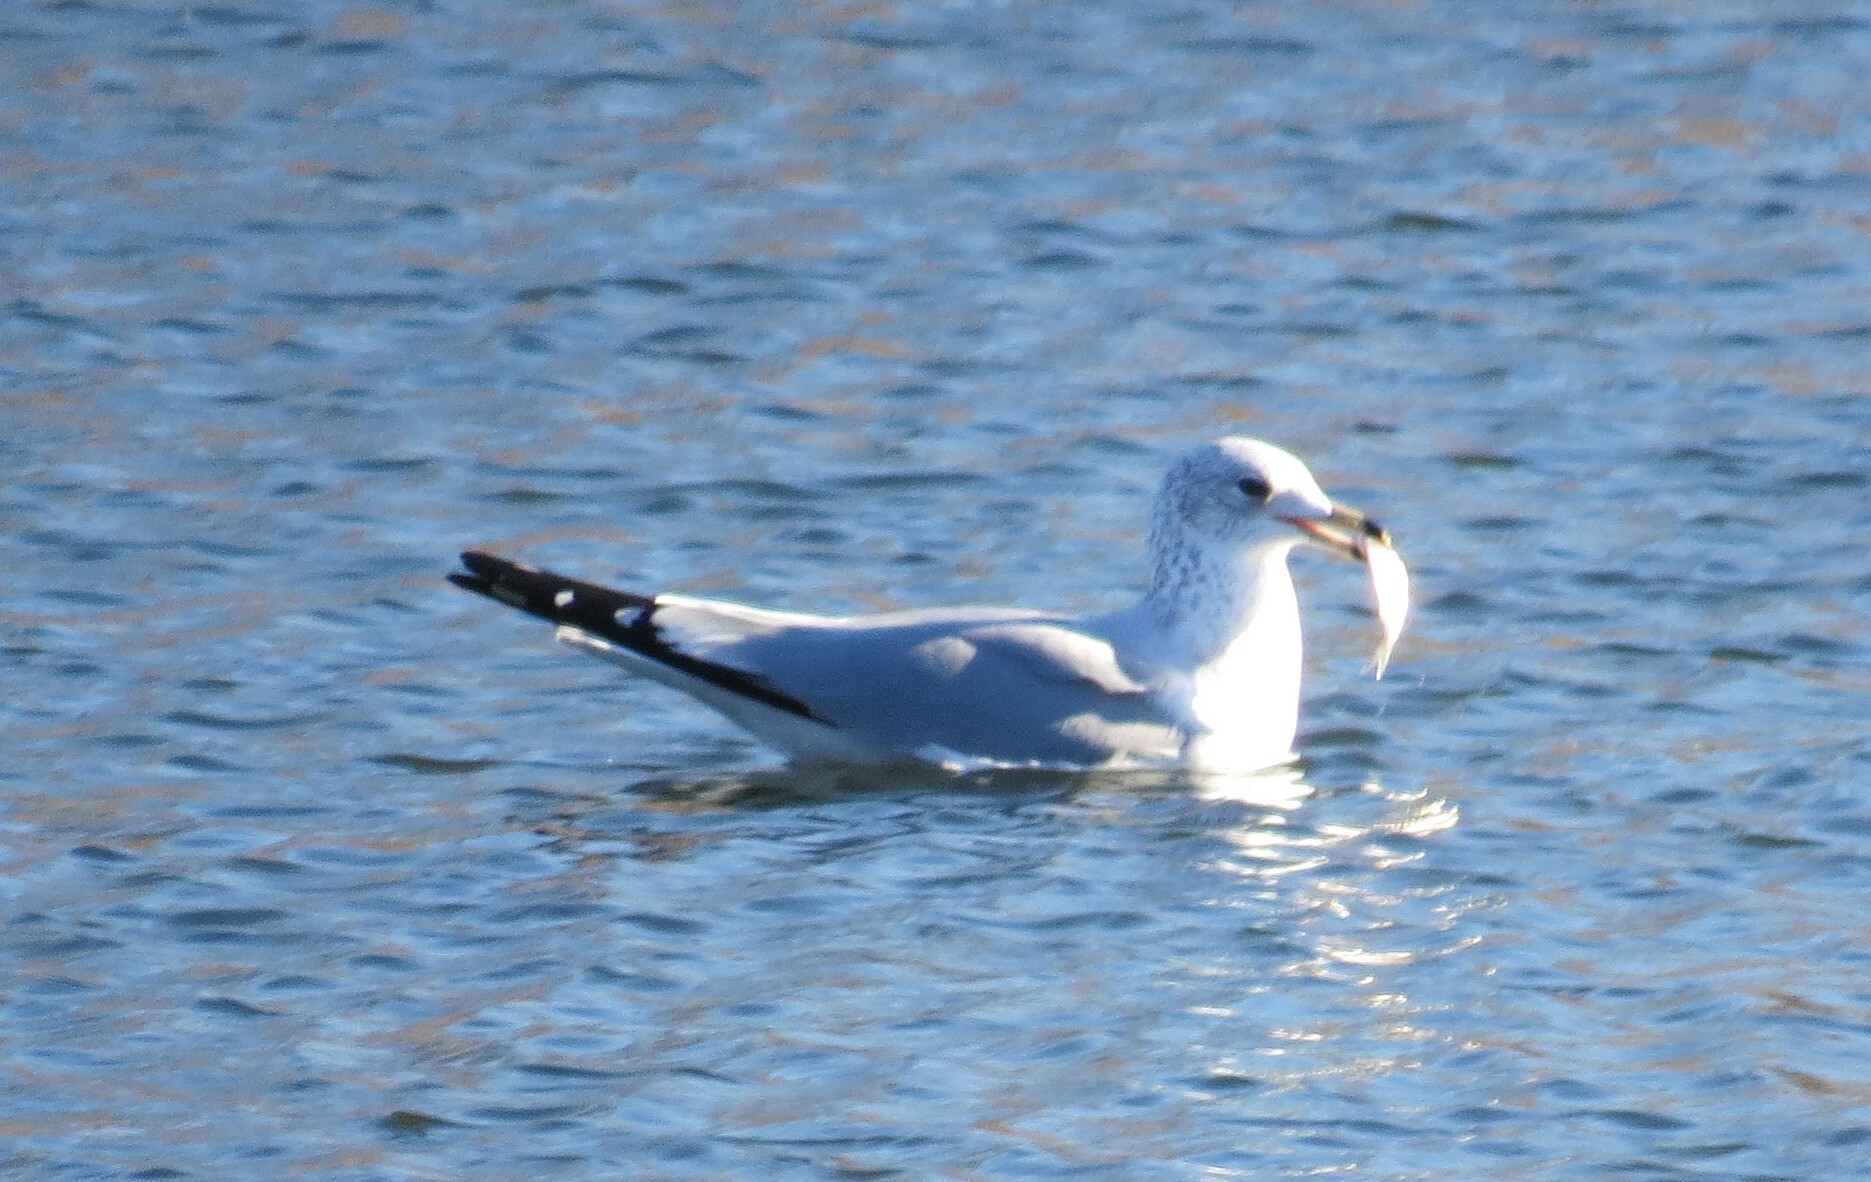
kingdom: Animalia
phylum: Chordata
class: Aves
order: Charadriiformes
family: Laridae
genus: Larus
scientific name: Larus delawarensis
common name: Ring-billed gull
